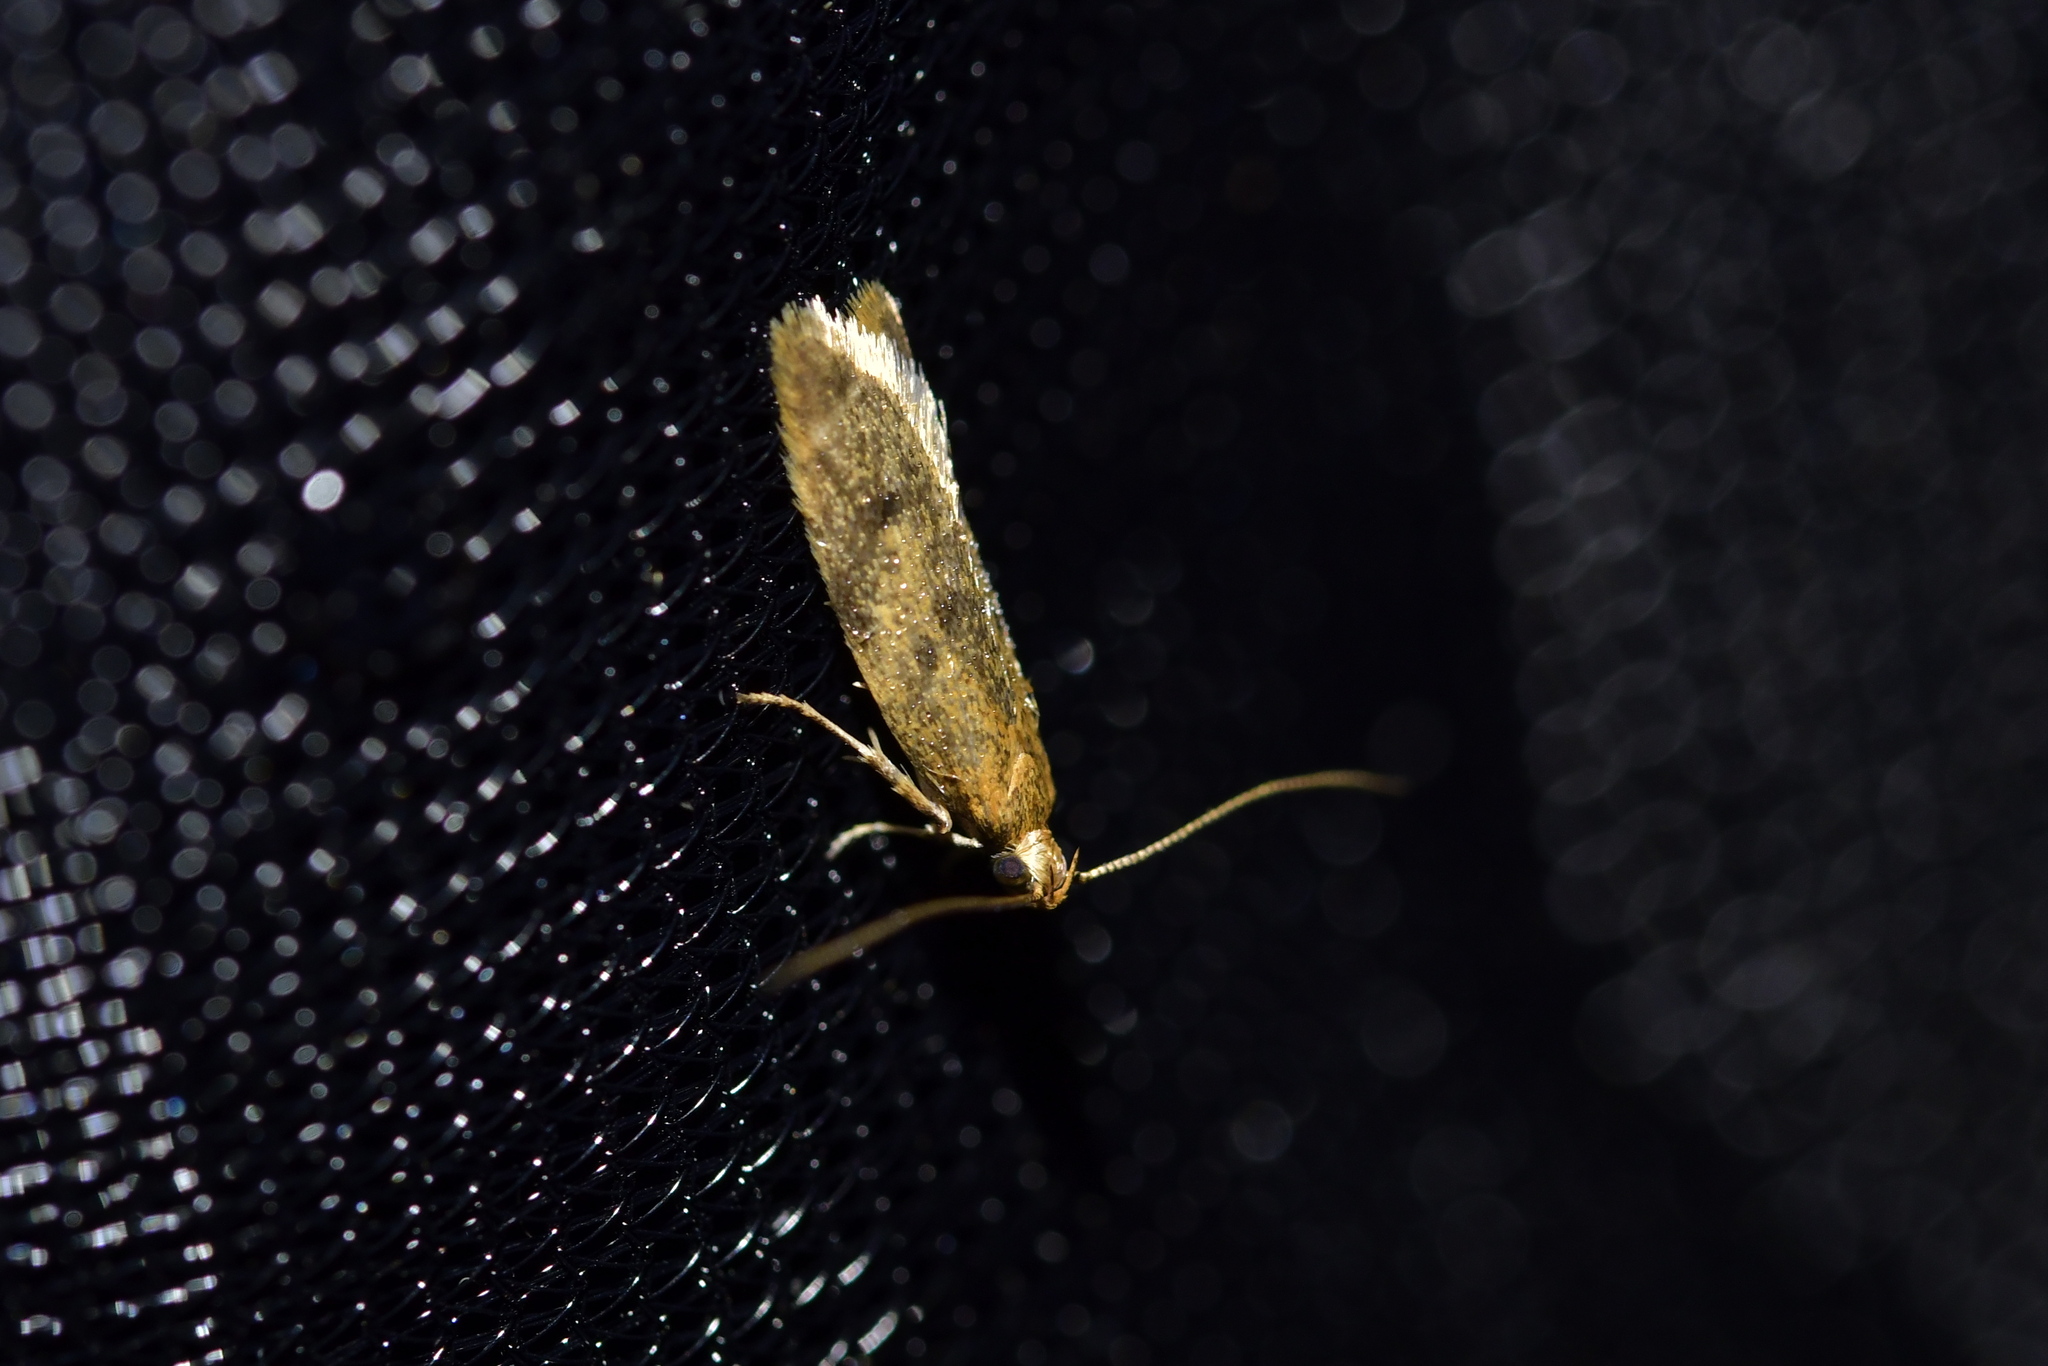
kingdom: Animalia
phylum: Arthropoda
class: Insecta
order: Lepidoptera
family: Oecophoridae
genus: Gymnobathra
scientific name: Gymnobathra tholodella
